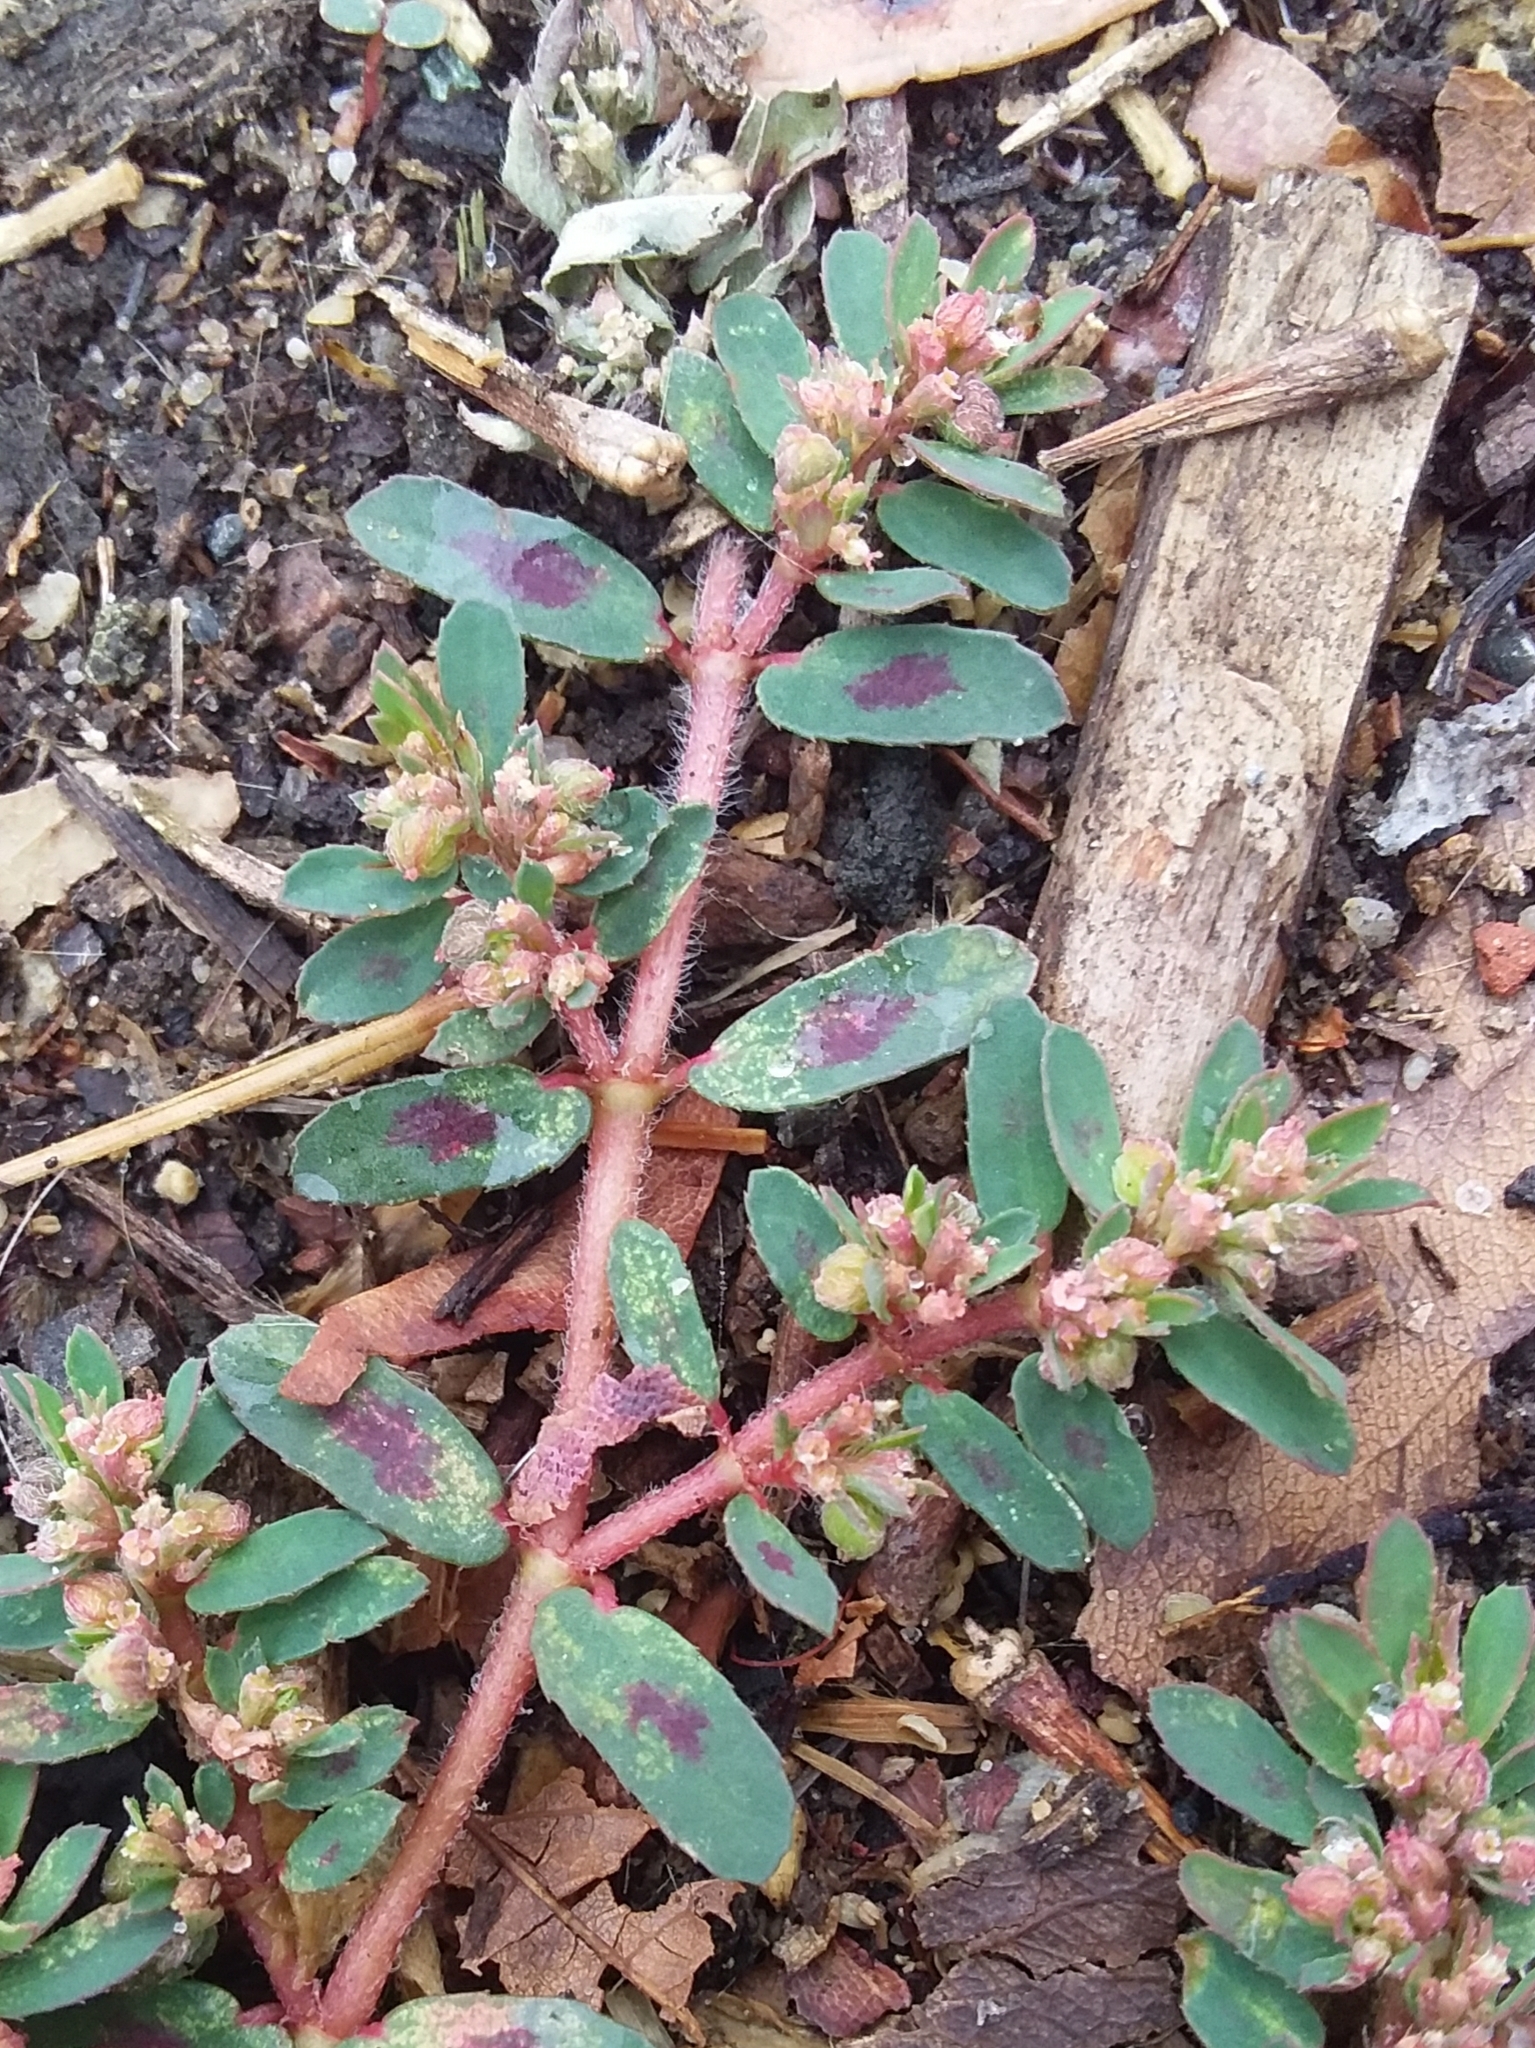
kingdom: Plantae
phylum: Tracheophyta
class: Magnoliopsida
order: Malpighiales
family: Euphorbiaceae
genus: Euphorbia
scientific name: Euphorbia maculata
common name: Spotted spurge
